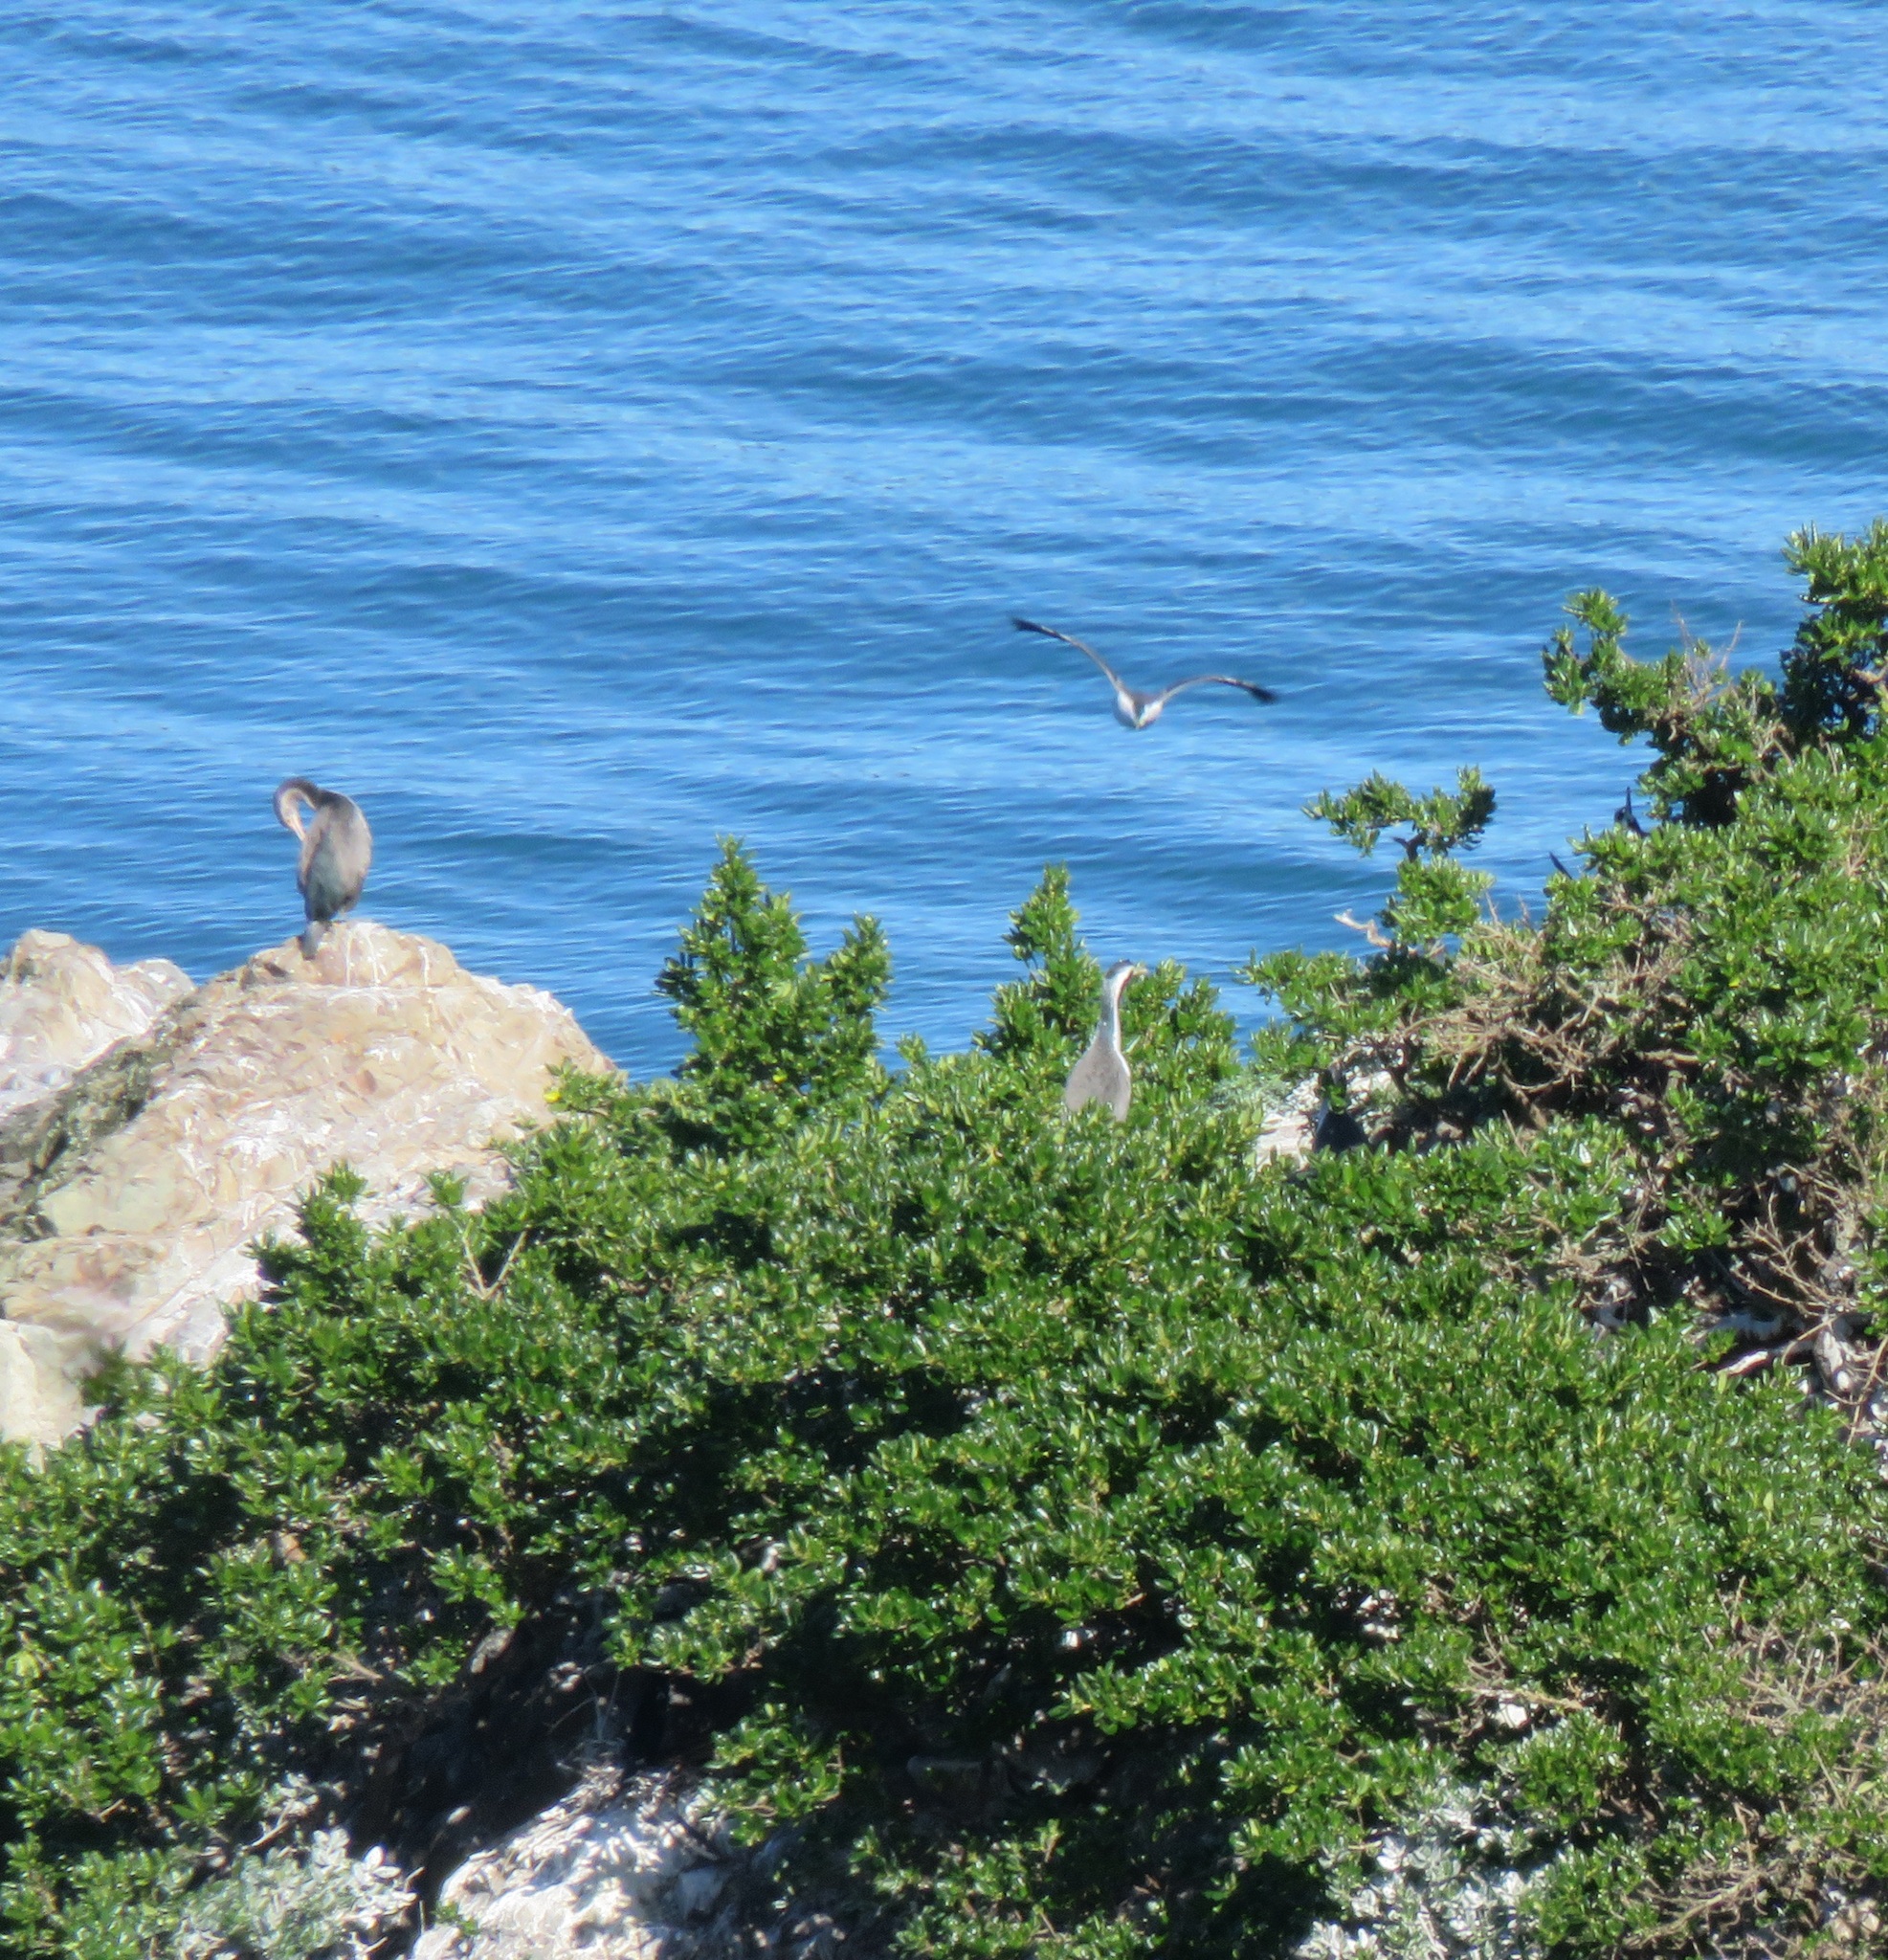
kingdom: Animalia
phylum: Chordata
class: Aves
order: Suliformes
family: Phalacrocoracidae
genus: Phalacrocorax
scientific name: Phalacrocorax punctatus
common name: Spotted shag
